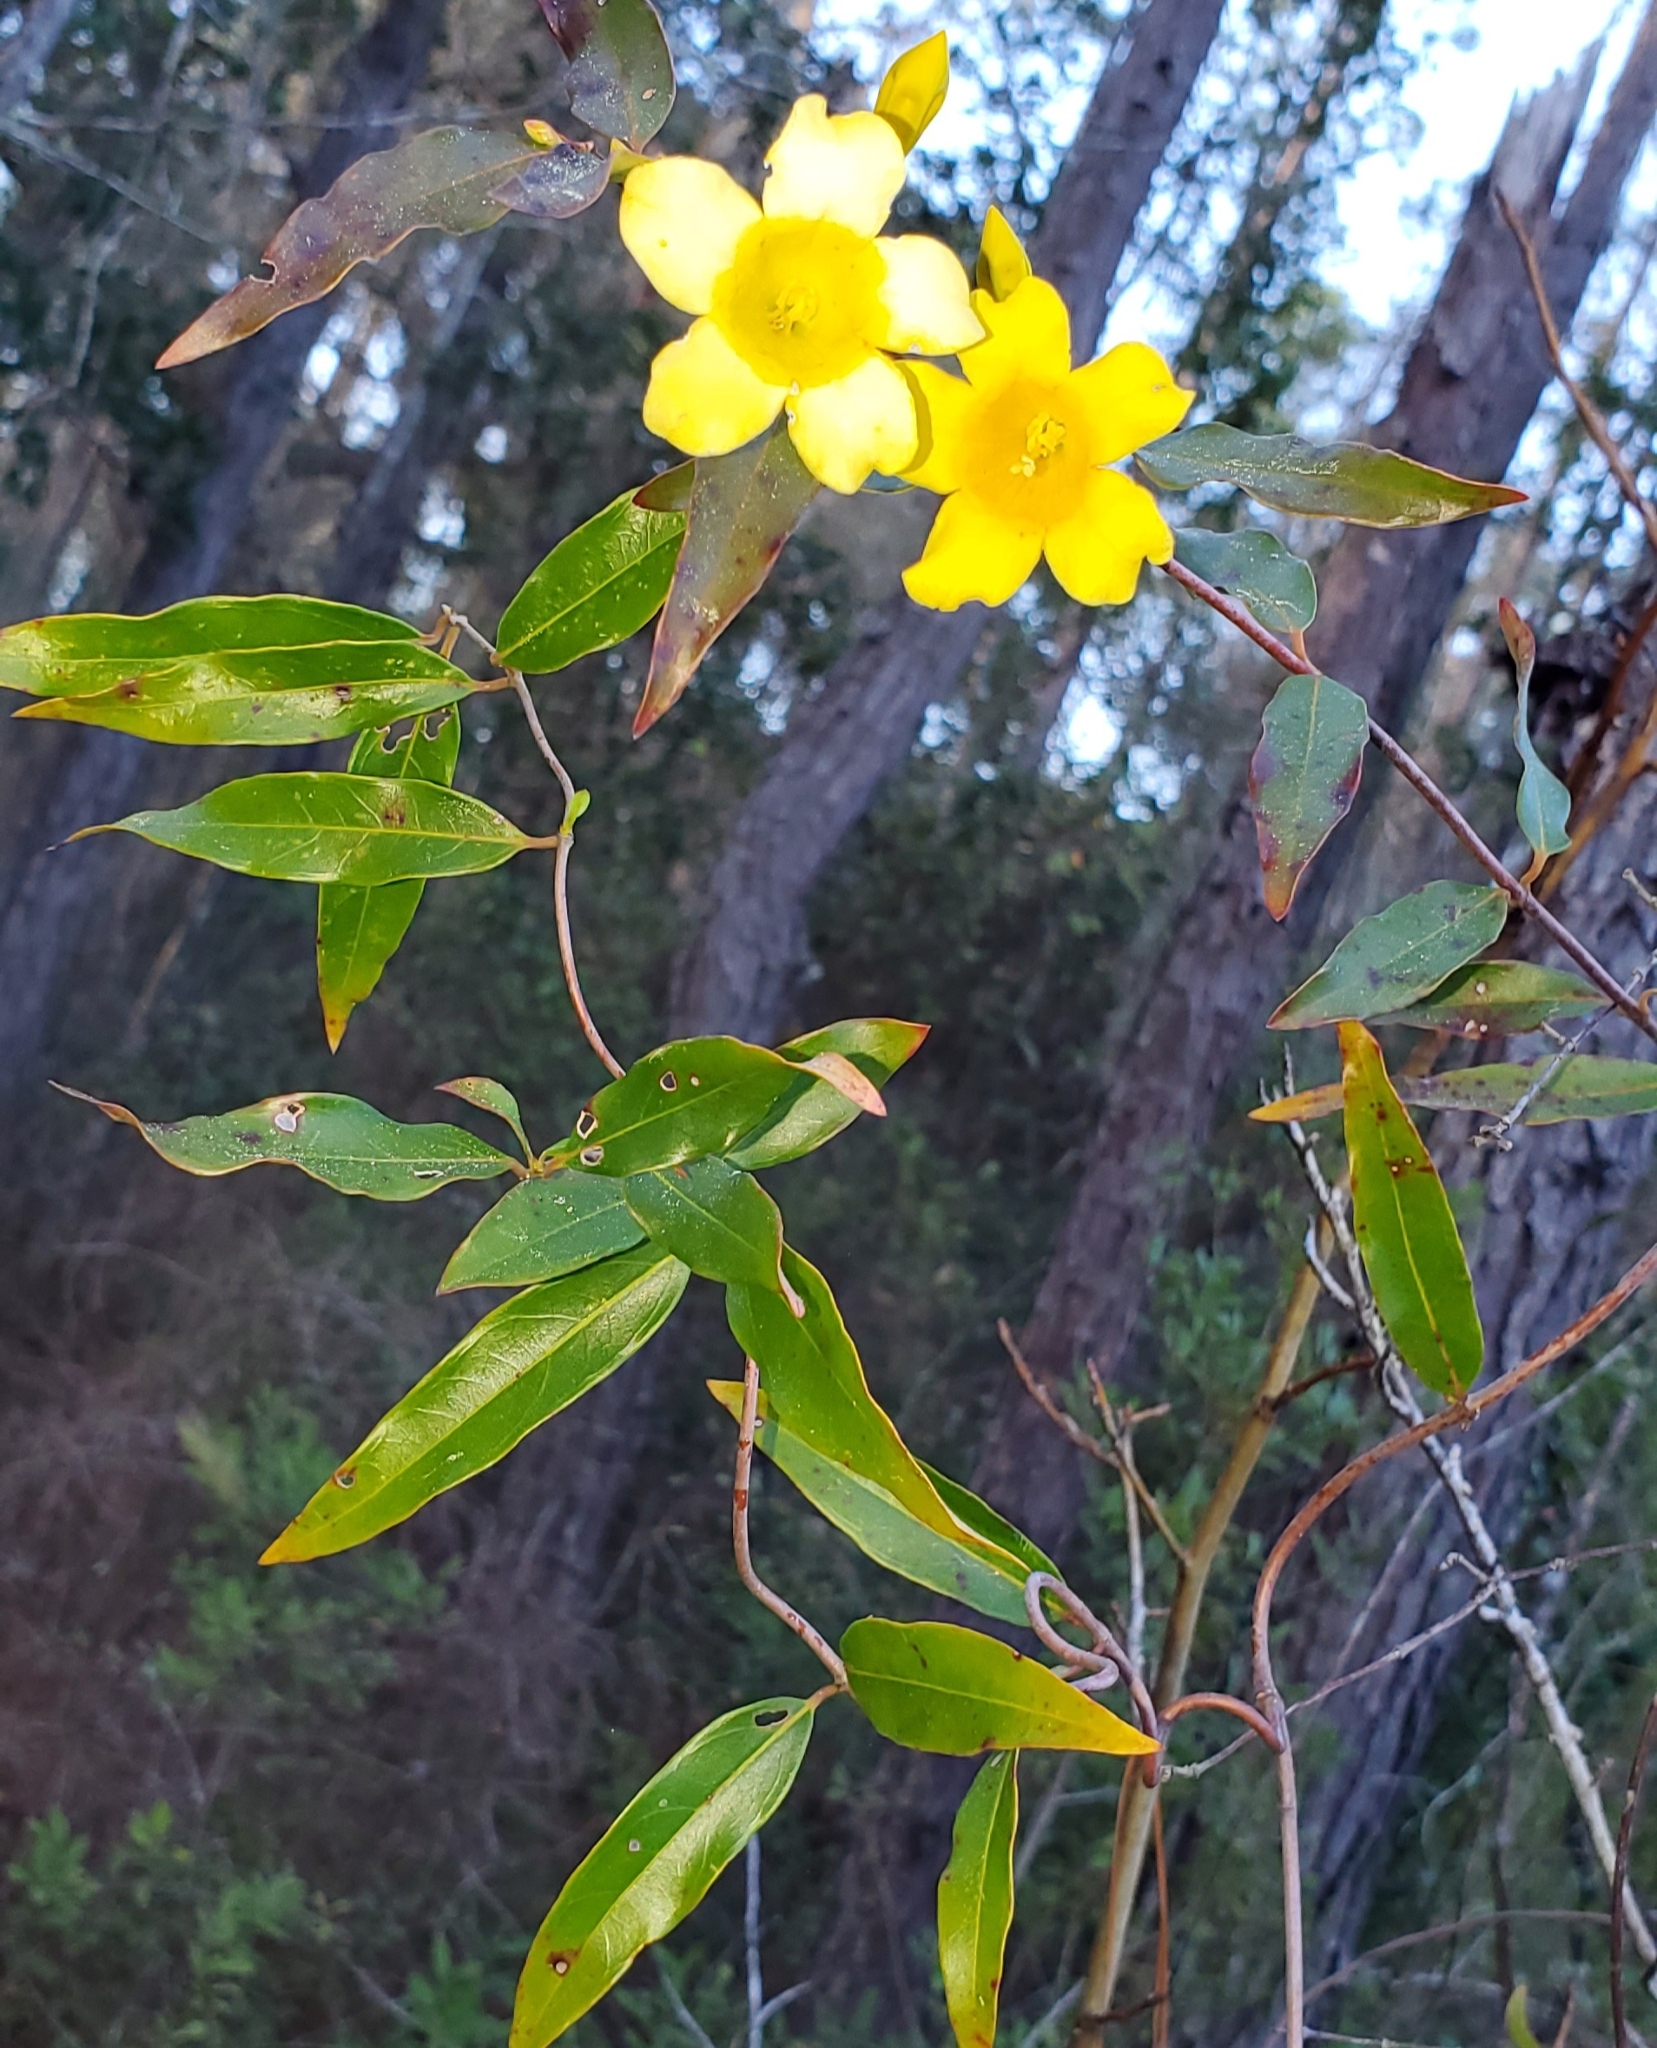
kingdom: Plantae
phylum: Tracheophyta
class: Magnoliopsida
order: Gentianales
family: Gelsemiaceae
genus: Gelsemium
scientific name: Gelsemium sempervirens
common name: Carolina-jasmine
